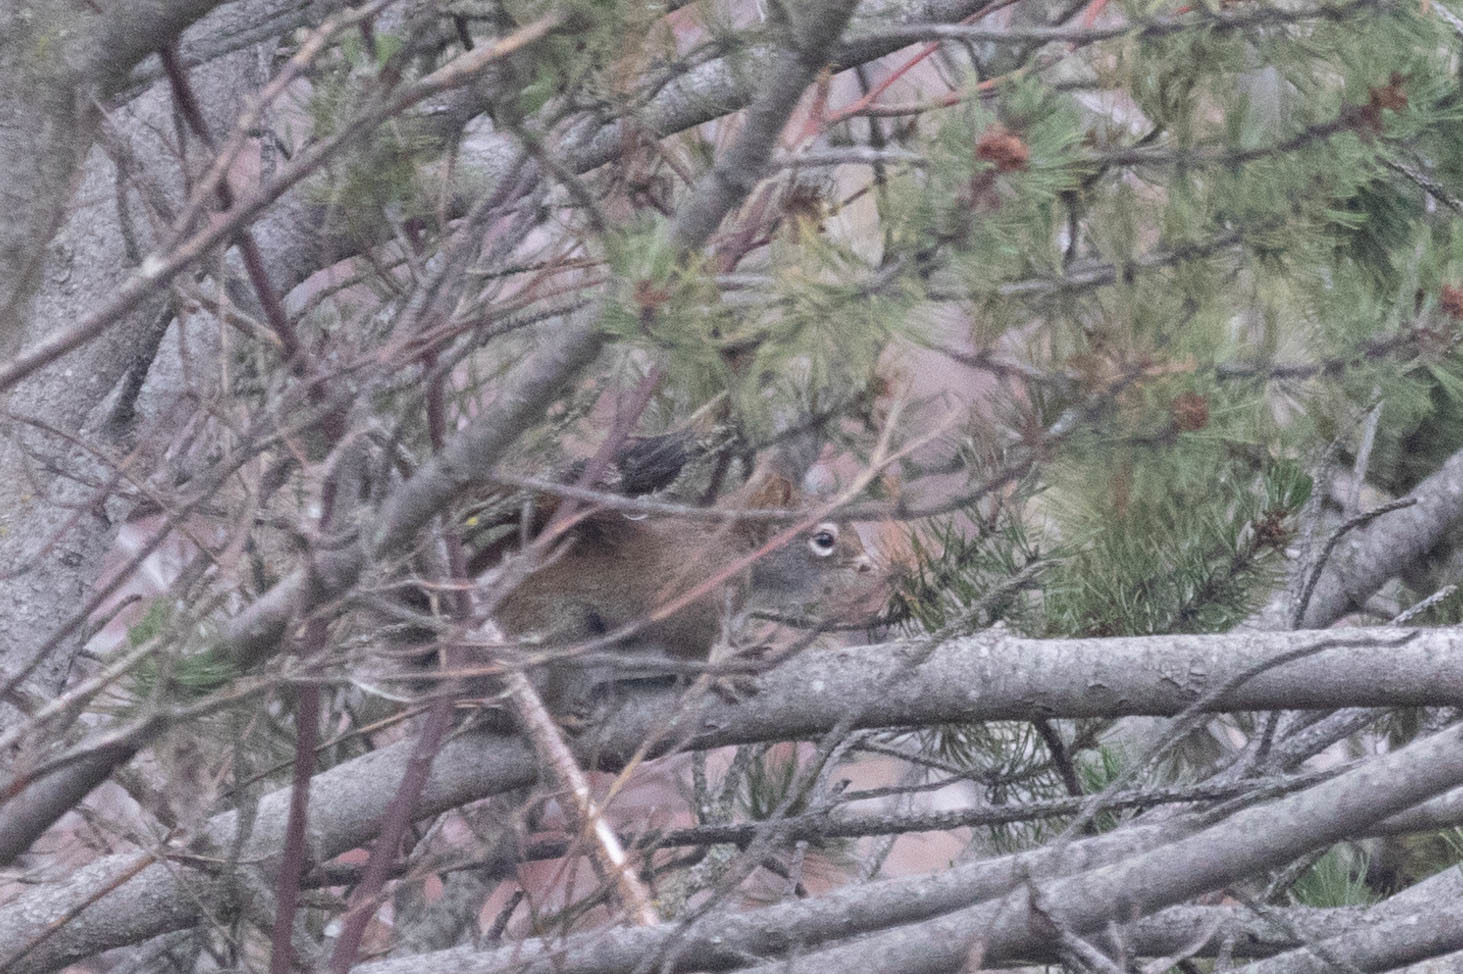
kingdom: Animalia
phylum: Chordata
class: Mammalia
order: Rodentia
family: Sciuridae
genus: Tamiasciurus
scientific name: Tamiasciurus hudsonicus
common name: Red squirrel
